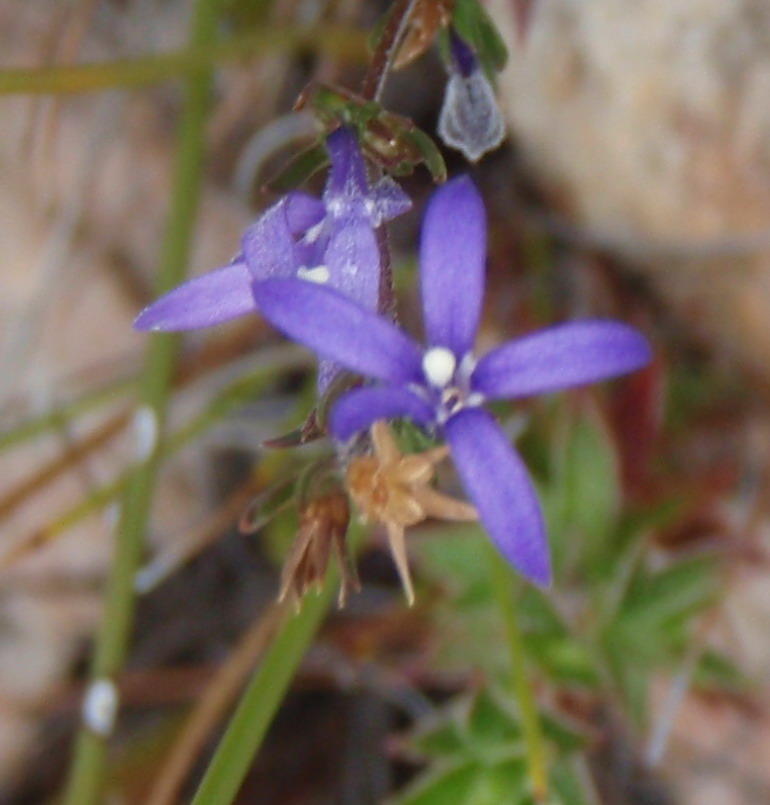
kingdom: Plantae
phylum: Tracheophyta
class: Magnoliopsida
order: Asterales
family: Campanulaceae
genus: Theilera
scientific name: Theilera guthriei
